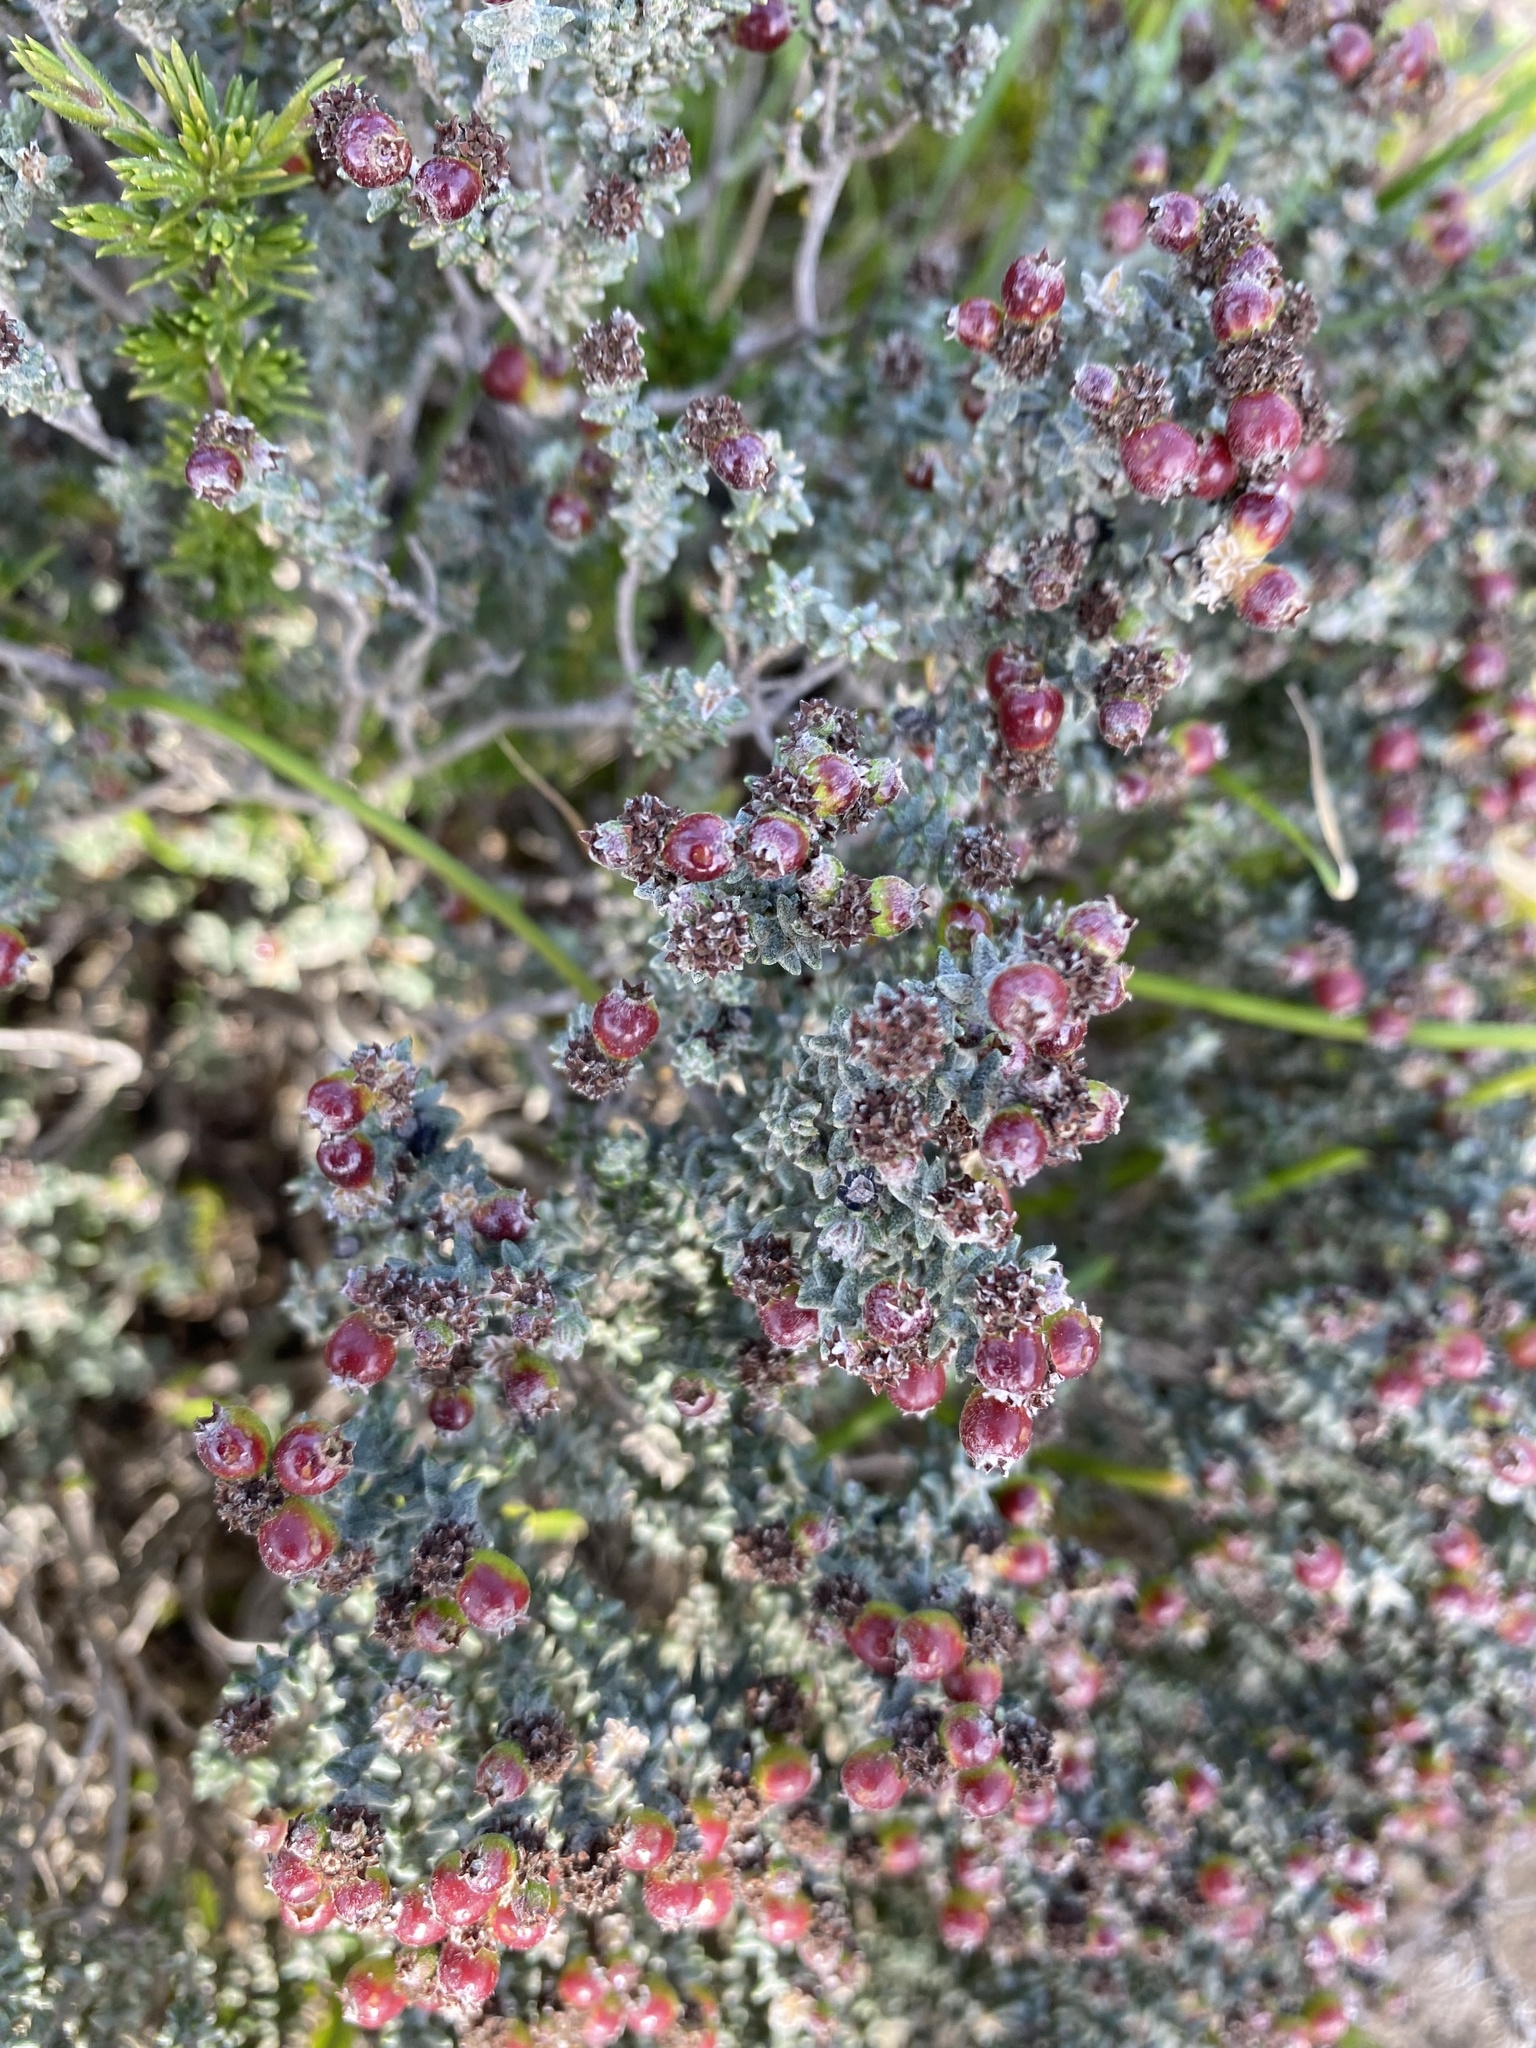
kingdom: Plantae
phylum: Tracheophyta
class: Magnoliopsida
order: Rosales
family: Rhamnaceae
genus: Phylica
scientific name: Phylica incurvata
